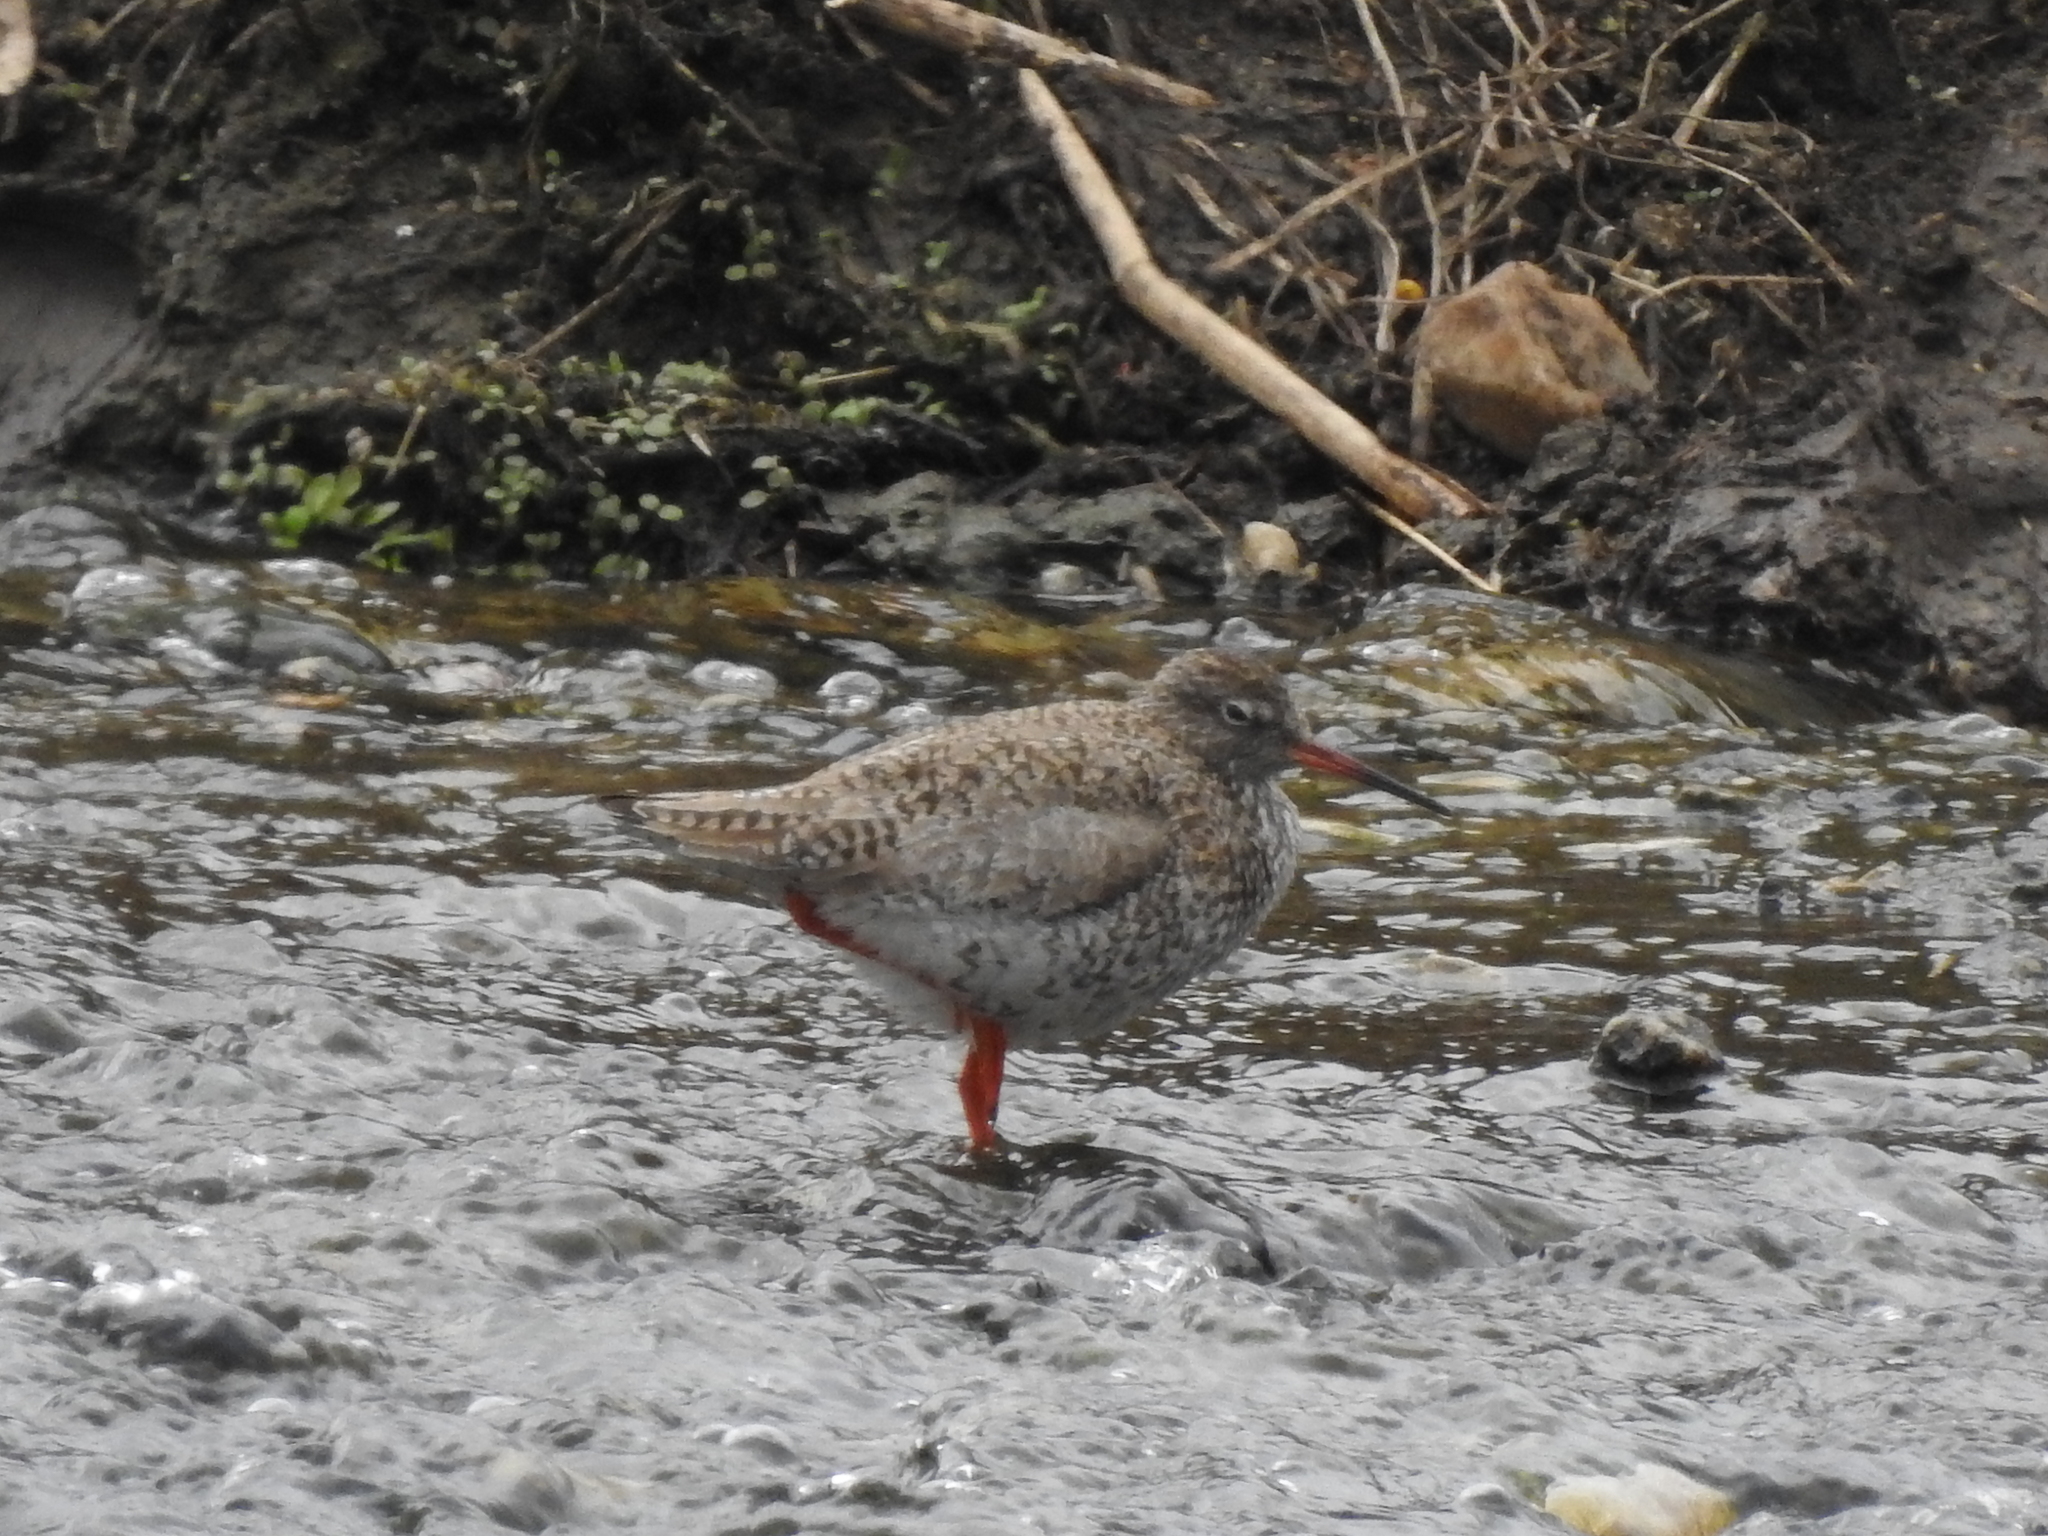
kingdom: Animalia
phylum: Chordata
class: Aves
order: Charadriiformes
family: Scolopacidae
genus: Tringa
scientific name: Tringa totanus
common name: Common redshank
